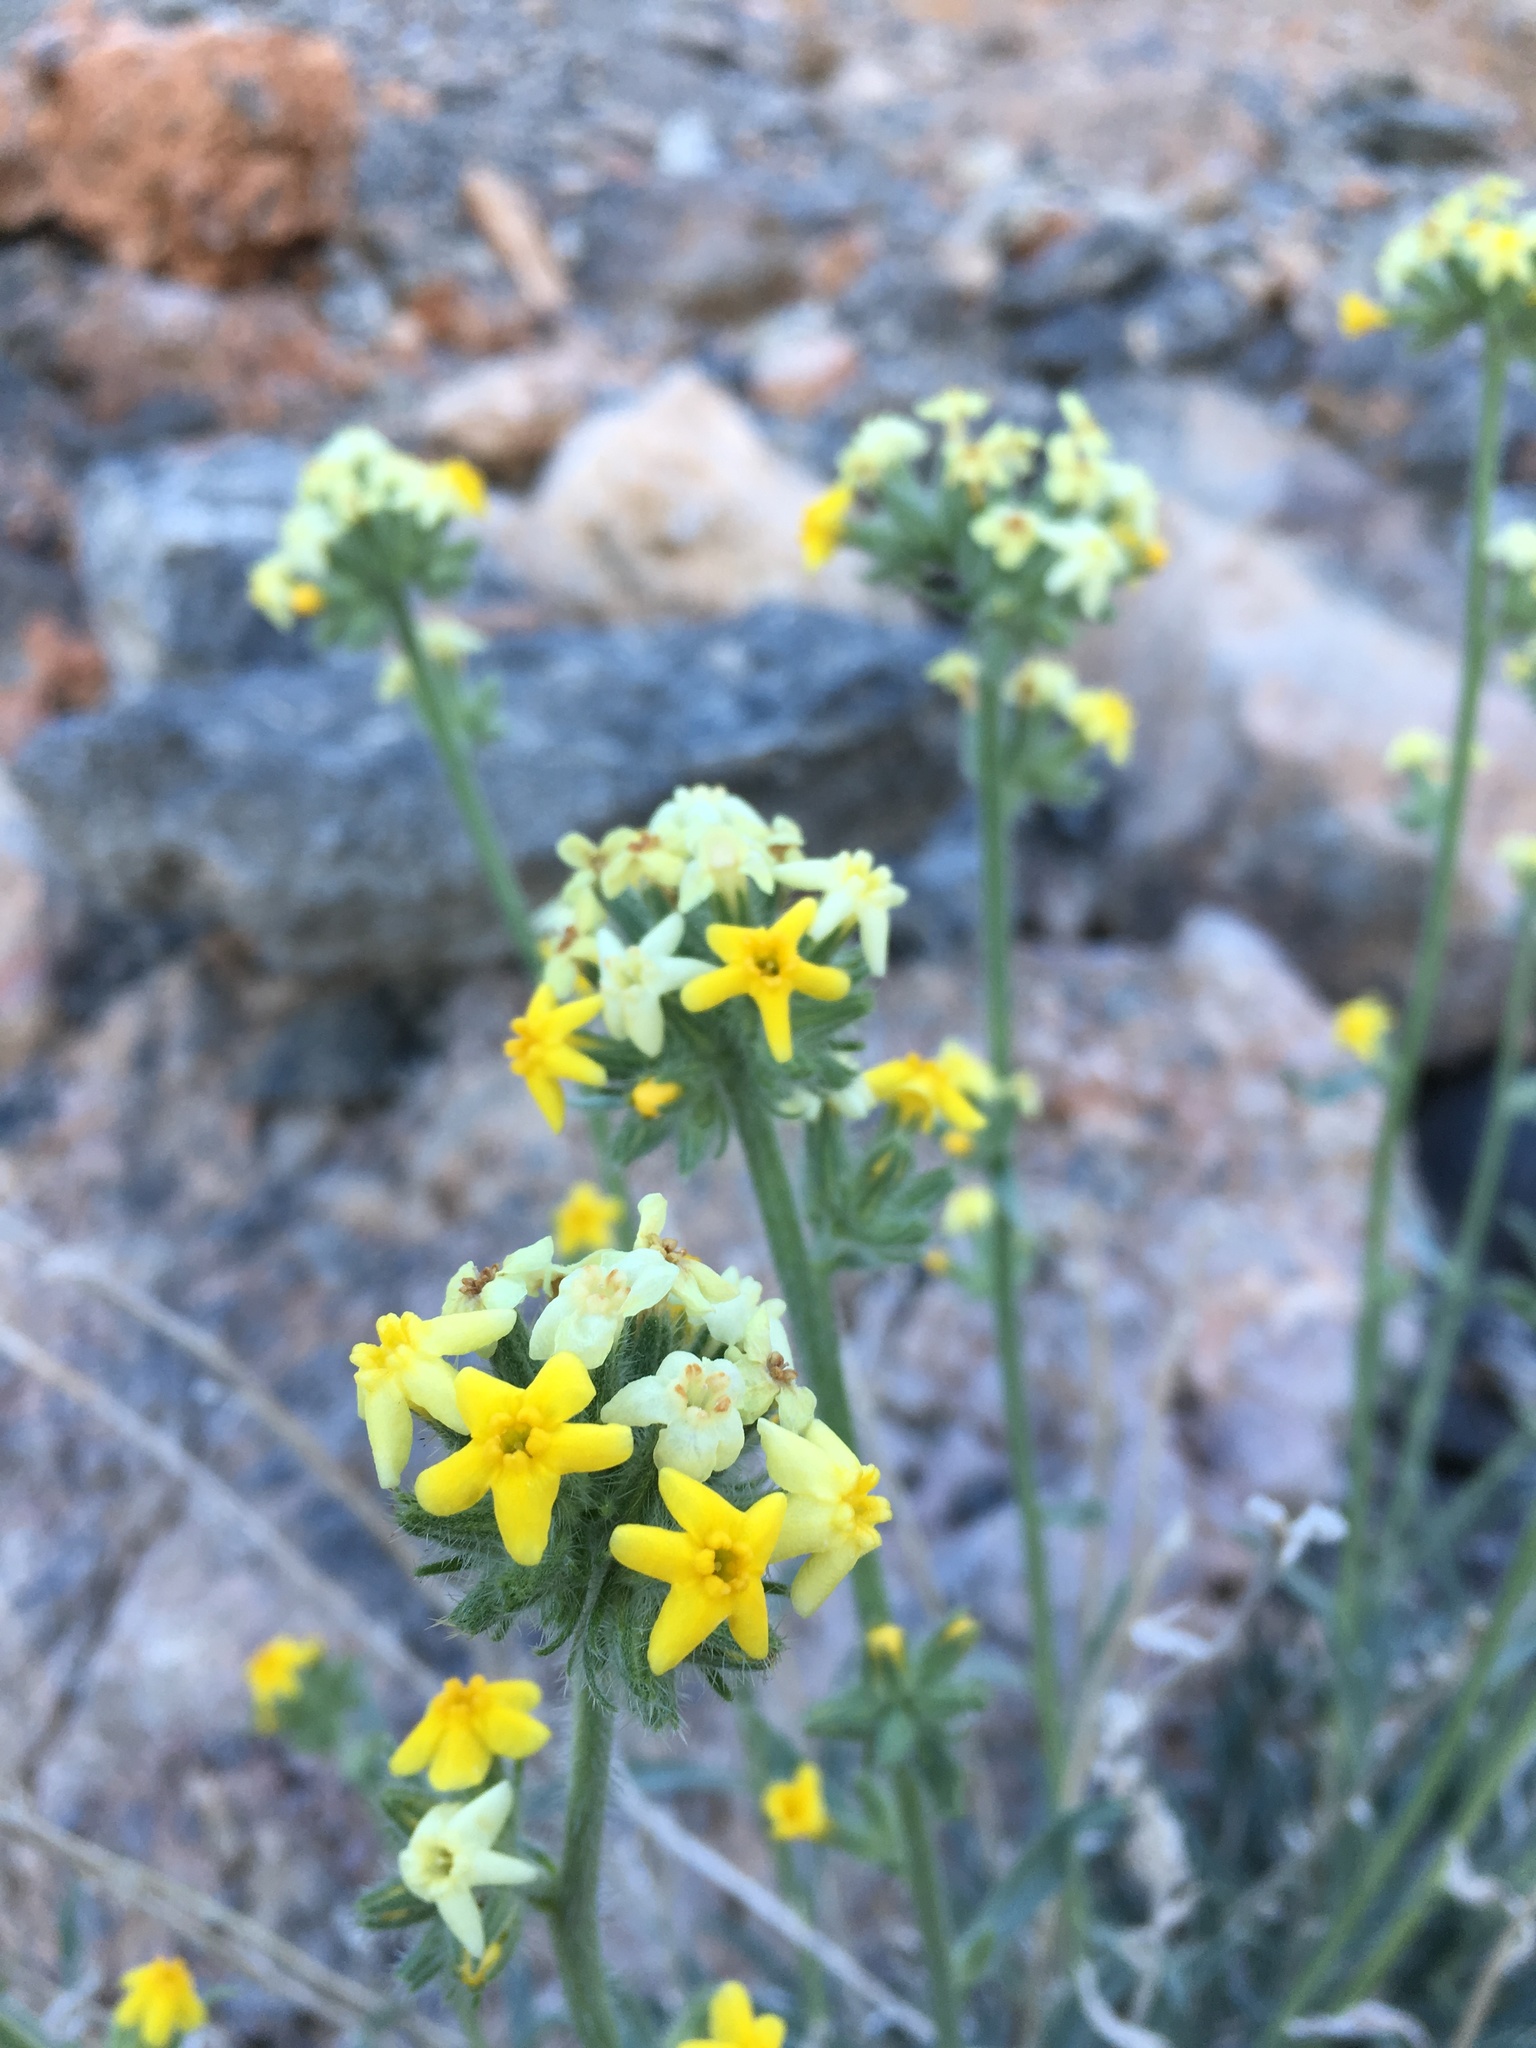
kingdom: Plantae
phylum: Tracheophyta
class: Magnoliopsida
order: Boraginales
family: Boraginaceae
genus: Oreocarya
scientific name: Oreocarya confertiflora
